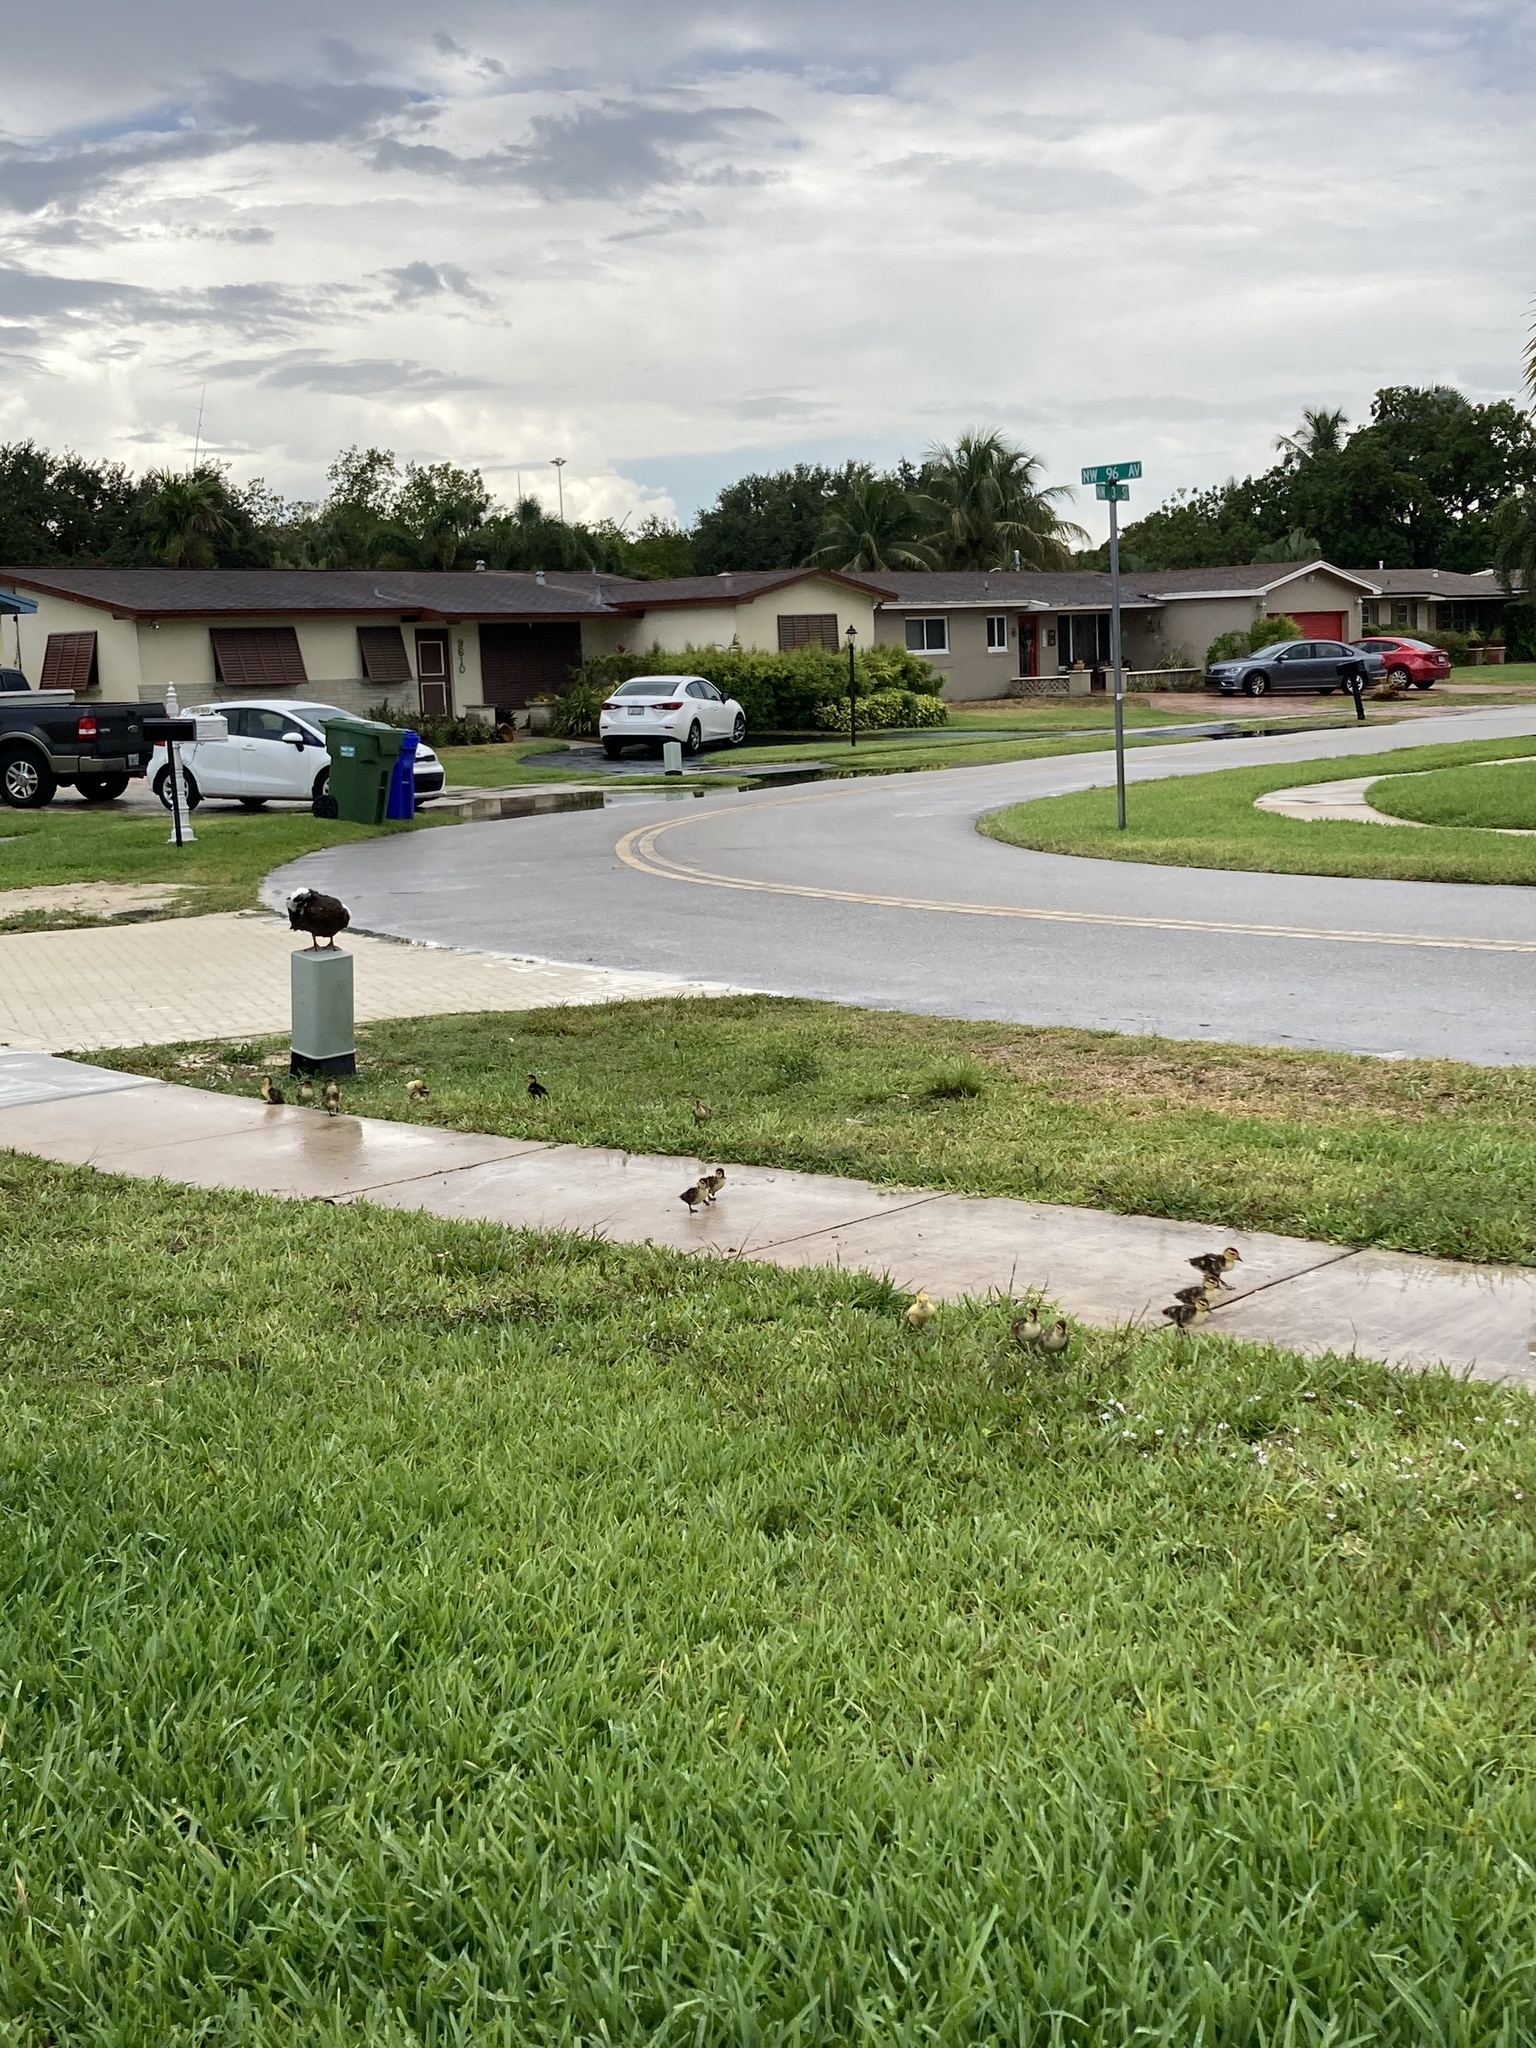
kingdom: Animalia
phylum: Chordata
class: Aves
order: Anseriformes
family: Anatidae
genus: Cairina
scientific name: Cairina moschata
